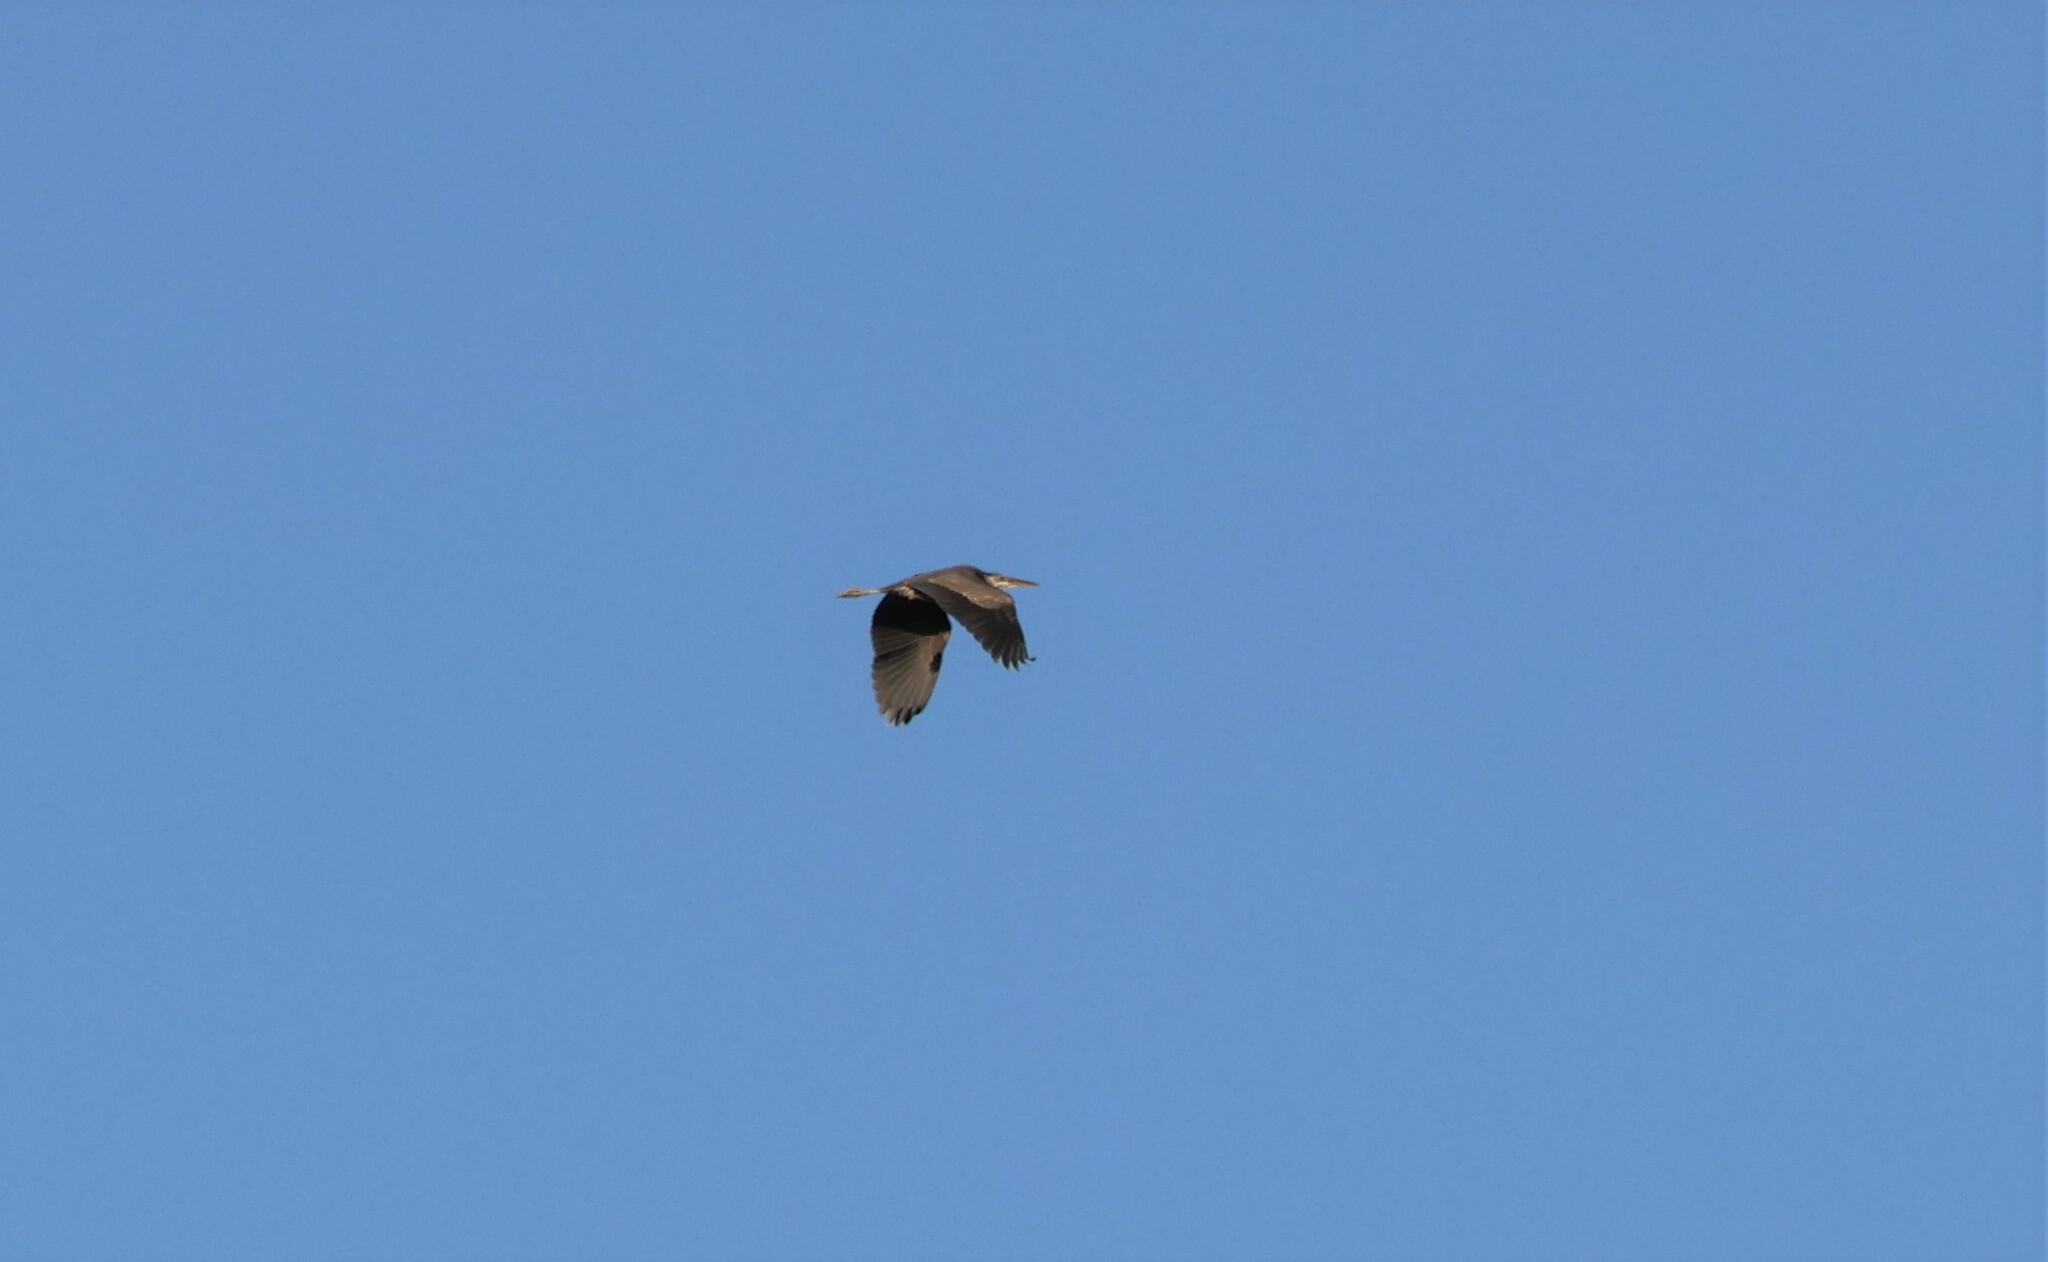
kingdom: Animalia
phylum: Chordata
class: Aves
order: Pelecaniformes
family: Ardeidae
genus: Ardea
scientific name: Ardea herodias
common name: Great blue heron
